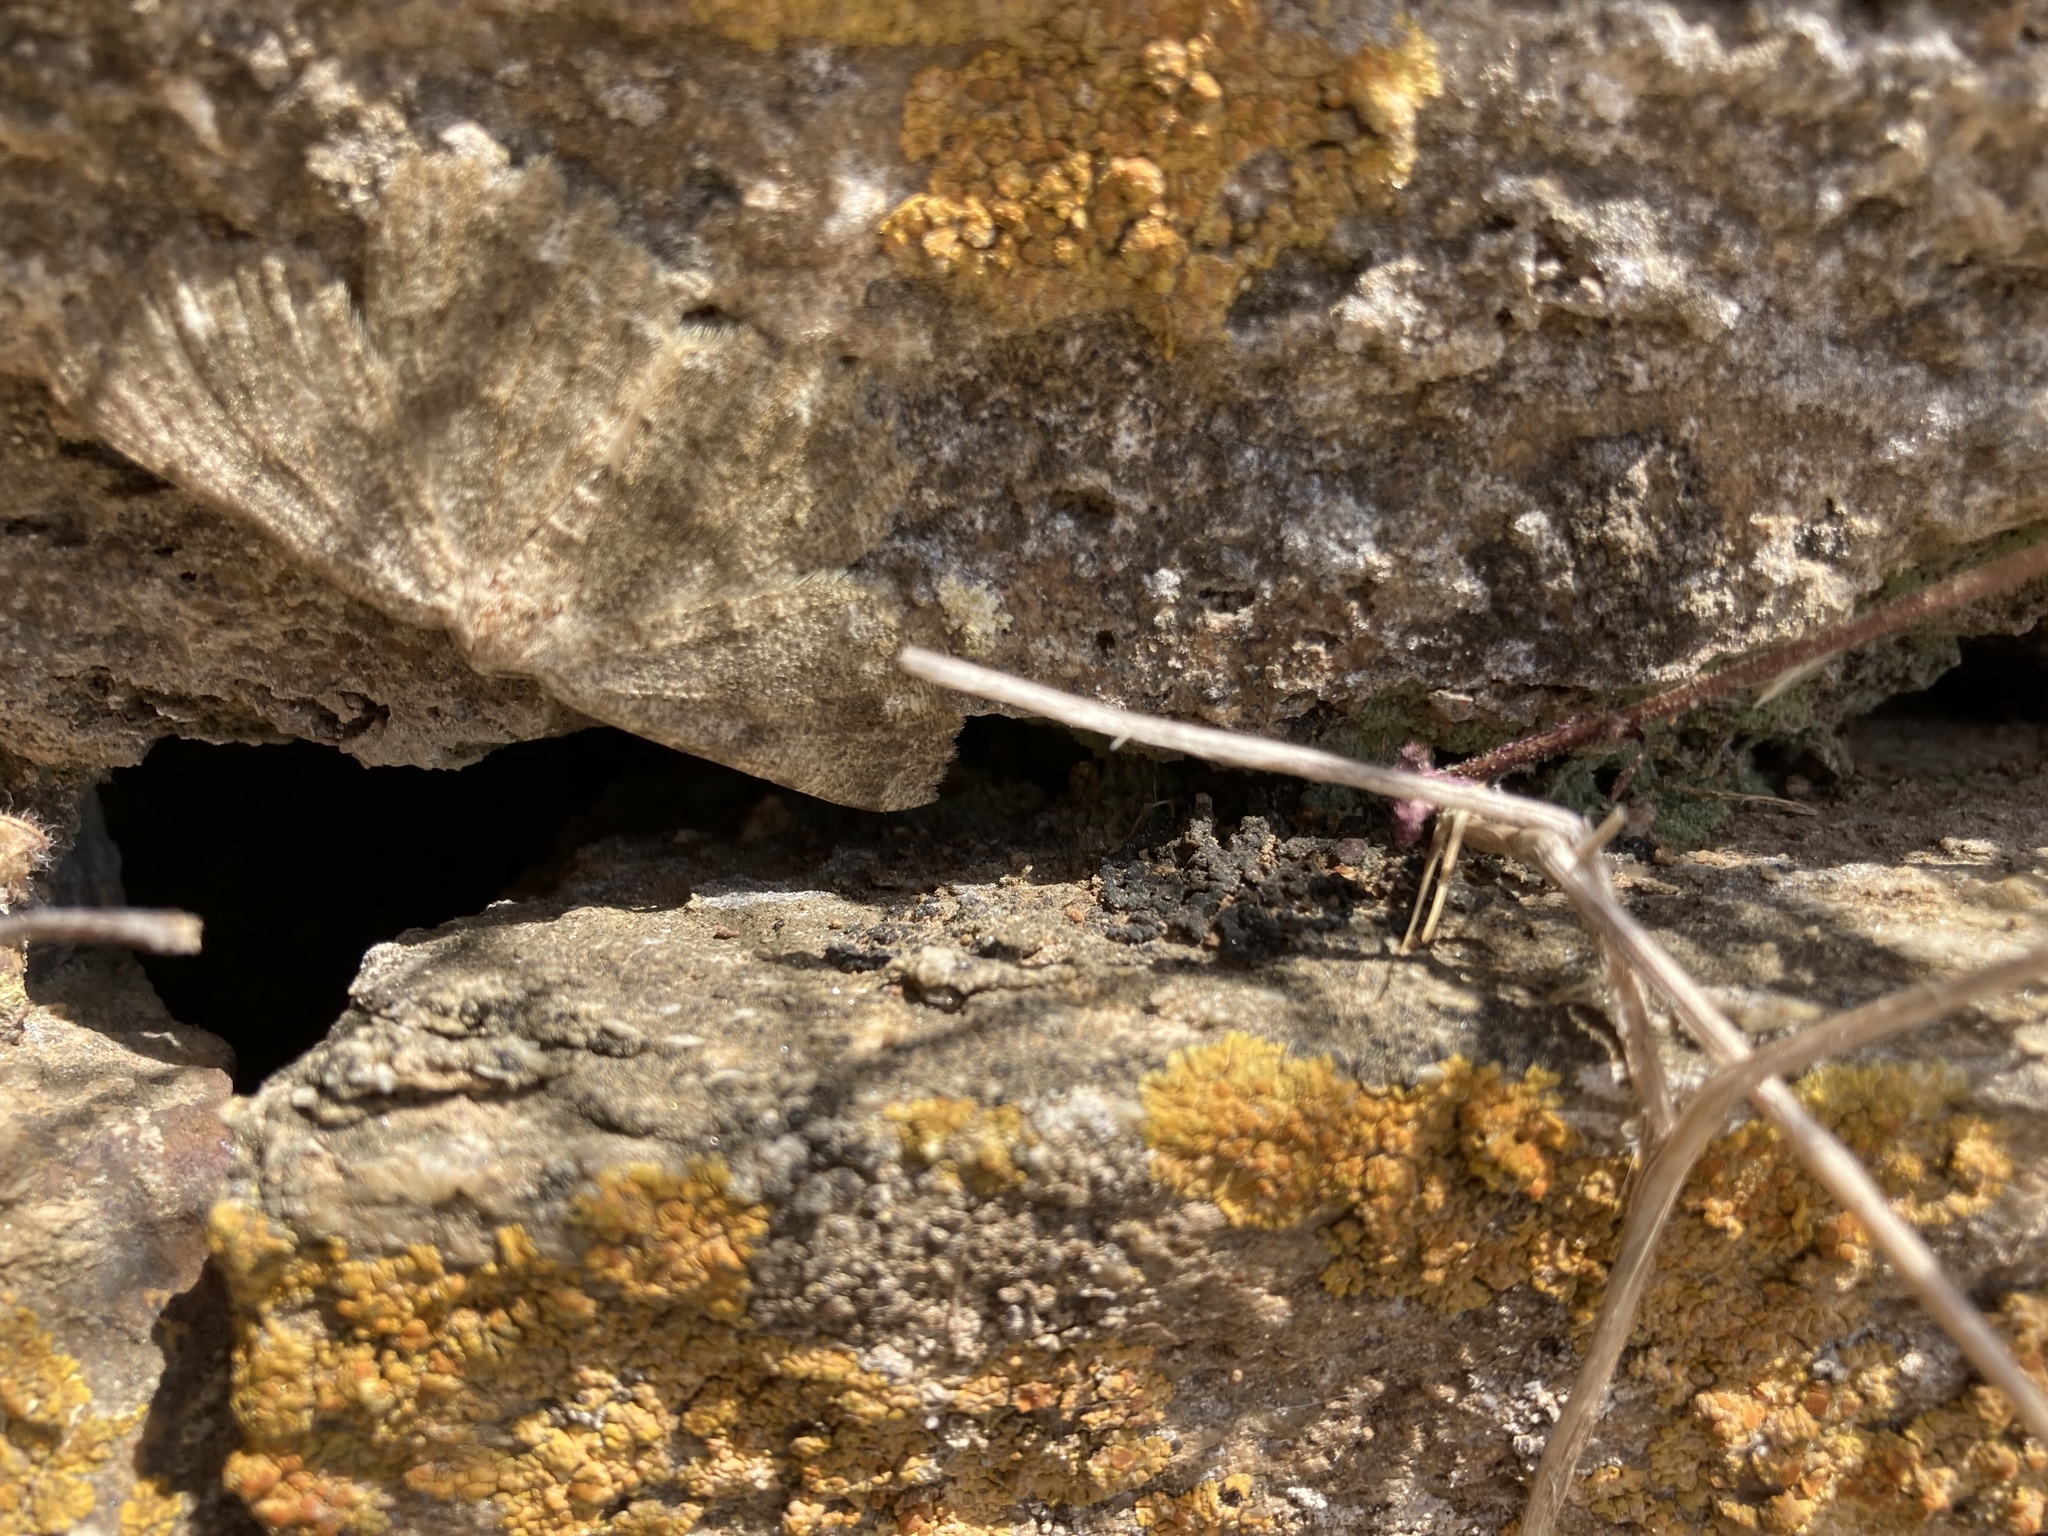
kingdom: Animalia
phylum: Arthropoda
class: Insecta
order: Lepidoptera
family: Geometridae
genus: Gnophos
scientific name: Gnophos sartata
